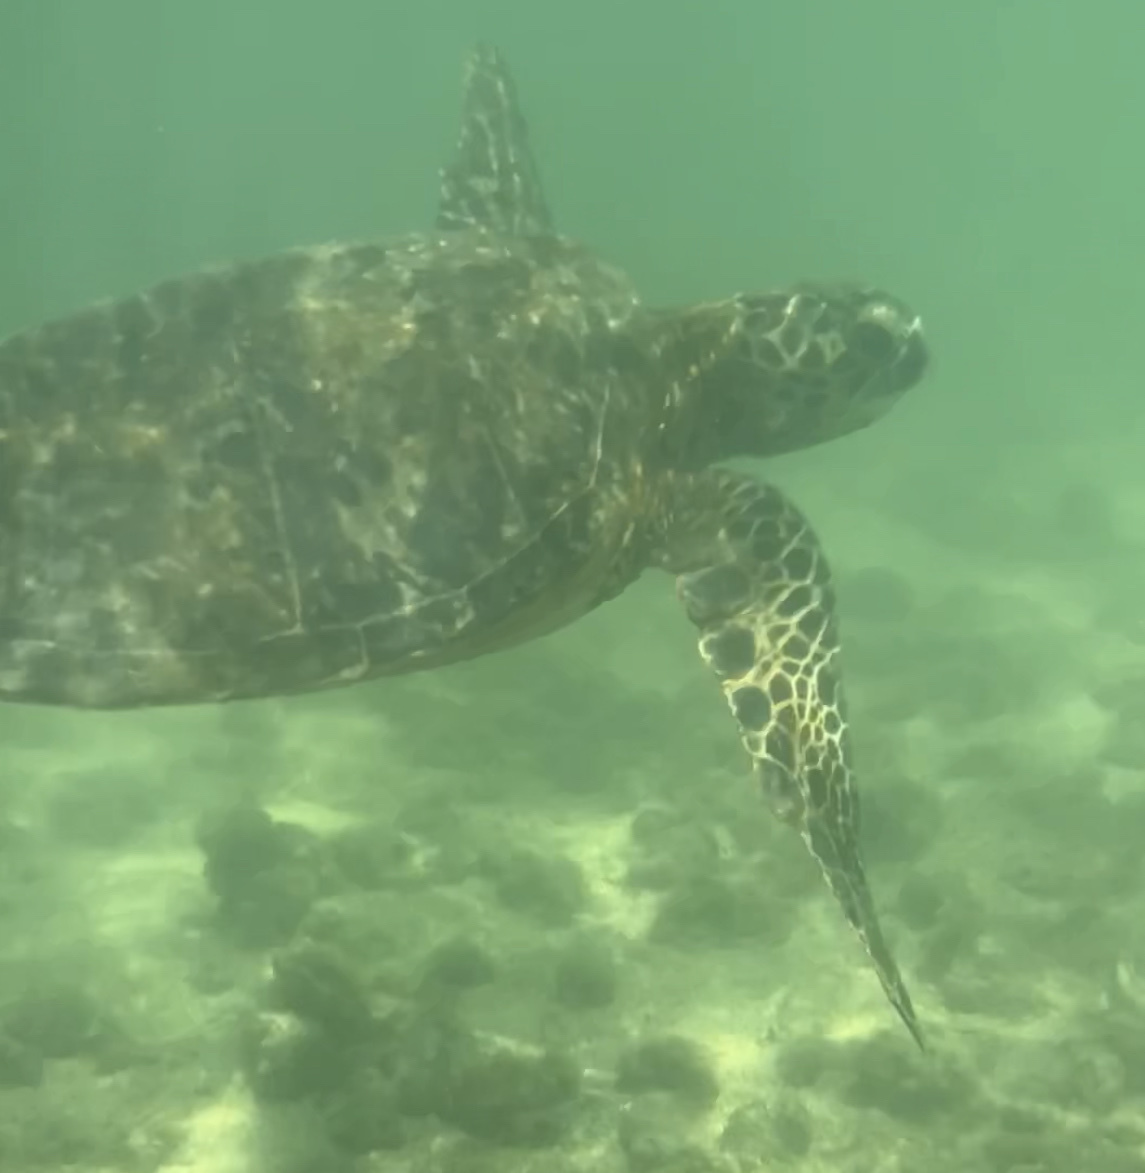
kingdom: Animalia
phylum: Chordata
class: Testudines
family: Cheloniidae
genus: Chelonia
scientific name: Chelonia mydas
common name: Green turtle
